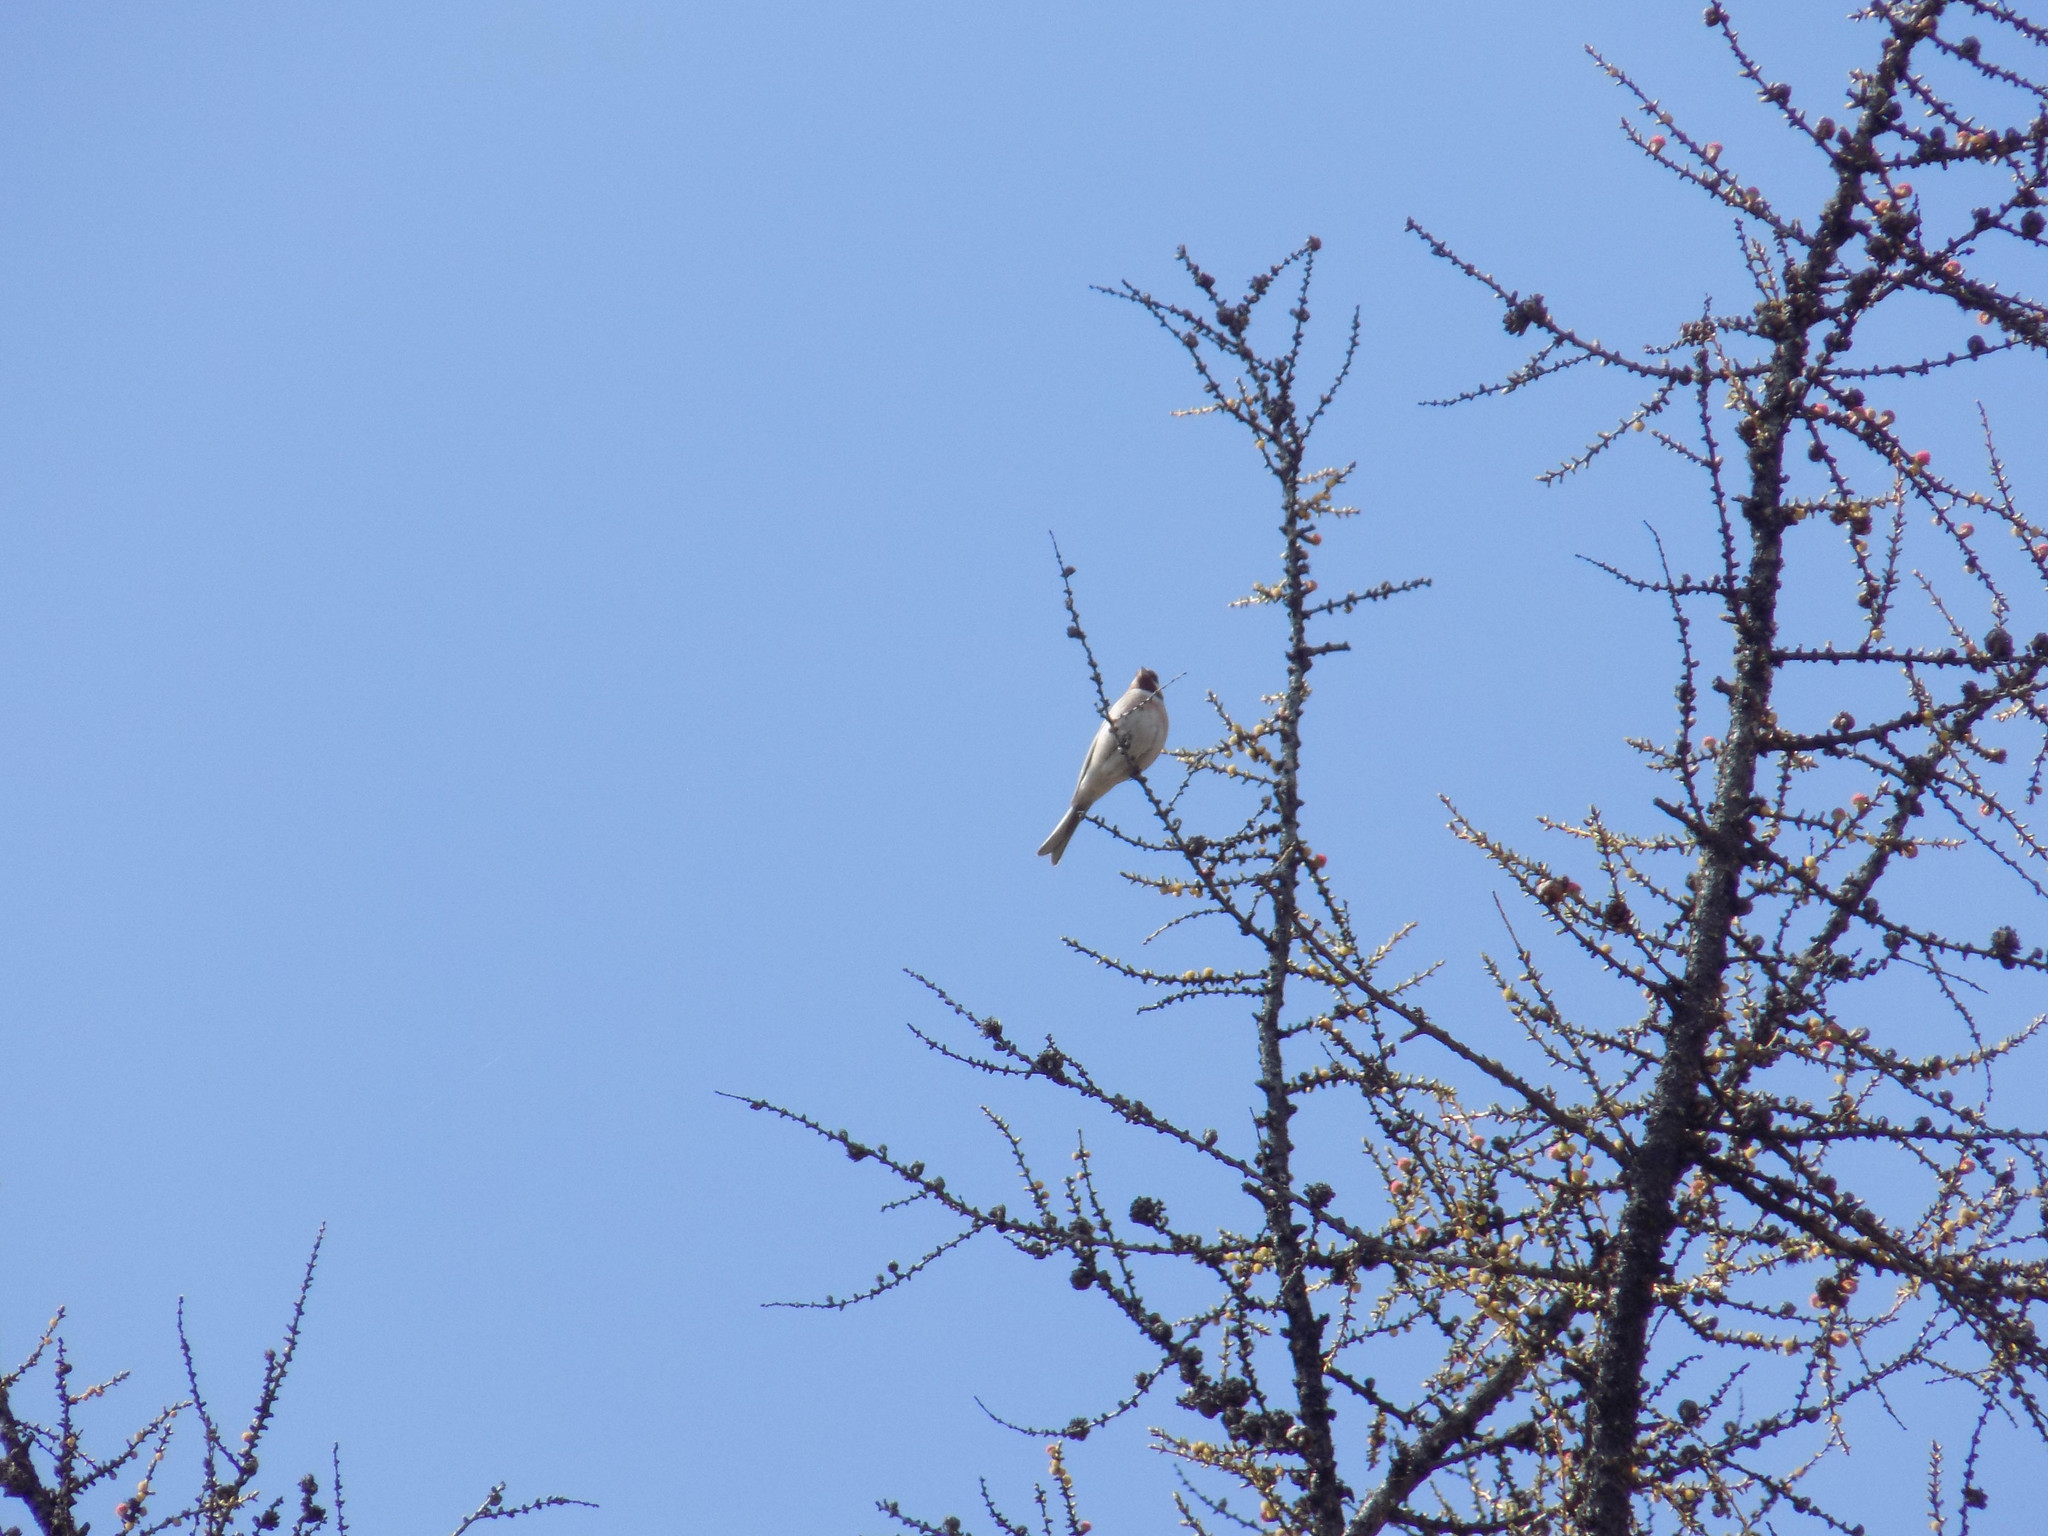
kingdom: Animalia
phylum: Chordata
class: Aves
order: Passeriformes
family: Emberizidae
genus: Emberiza
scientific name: Emberiza leucocephalos
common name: Pine bunting
